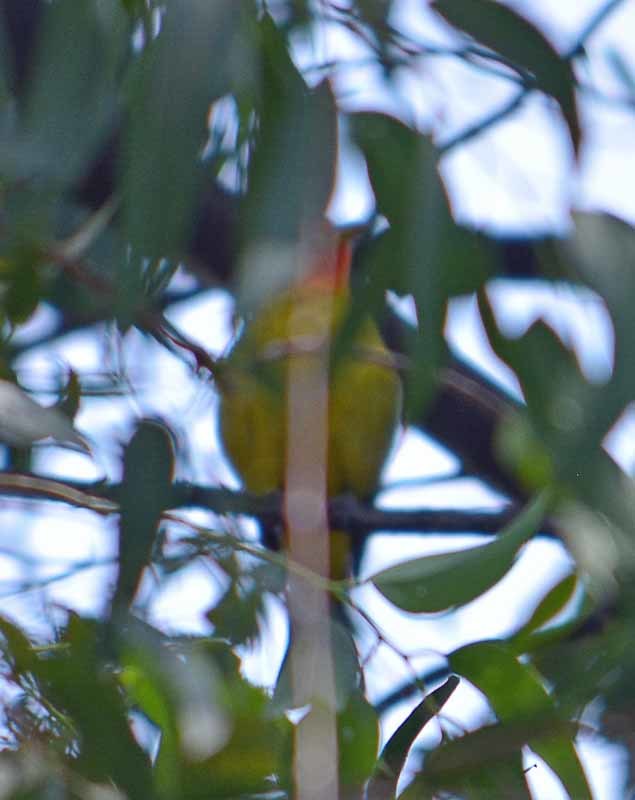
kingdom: Animalia
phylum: Chordata
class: Aves
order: Passeriformes
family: Cardinalidae
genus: Piranga
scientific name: Piranga ludoviciana
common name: Western tanager
